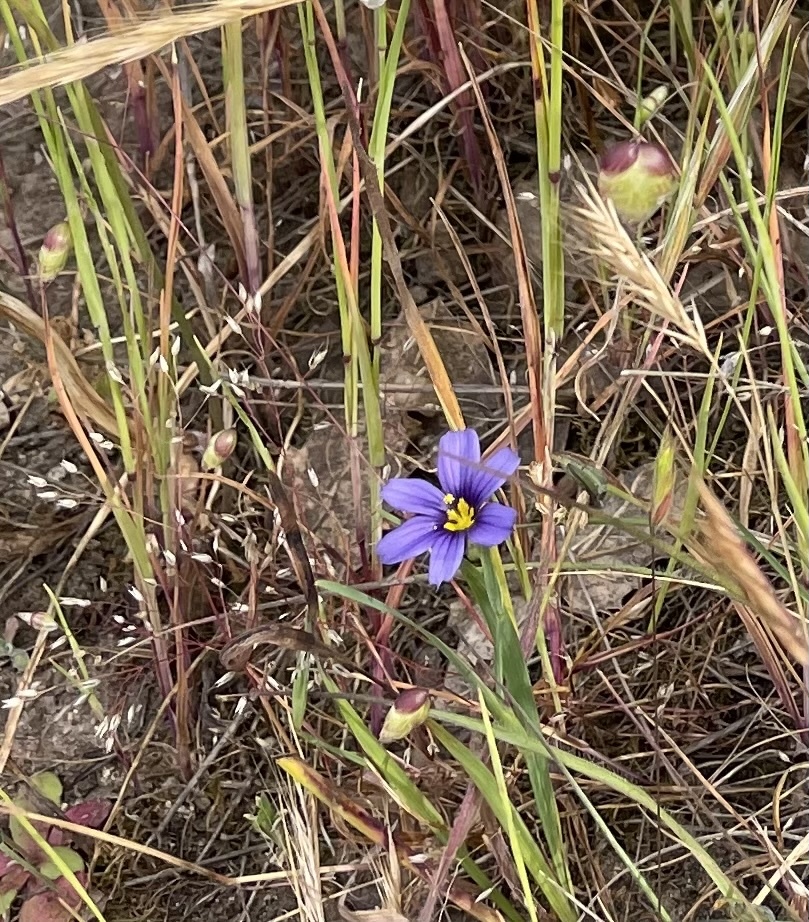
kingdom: Plantae
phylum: Tracheophyta
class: Liliopsida
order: Asparagales
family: Iridaceae
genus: Sisyrinchium
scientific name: Sisyrinchium bellum
